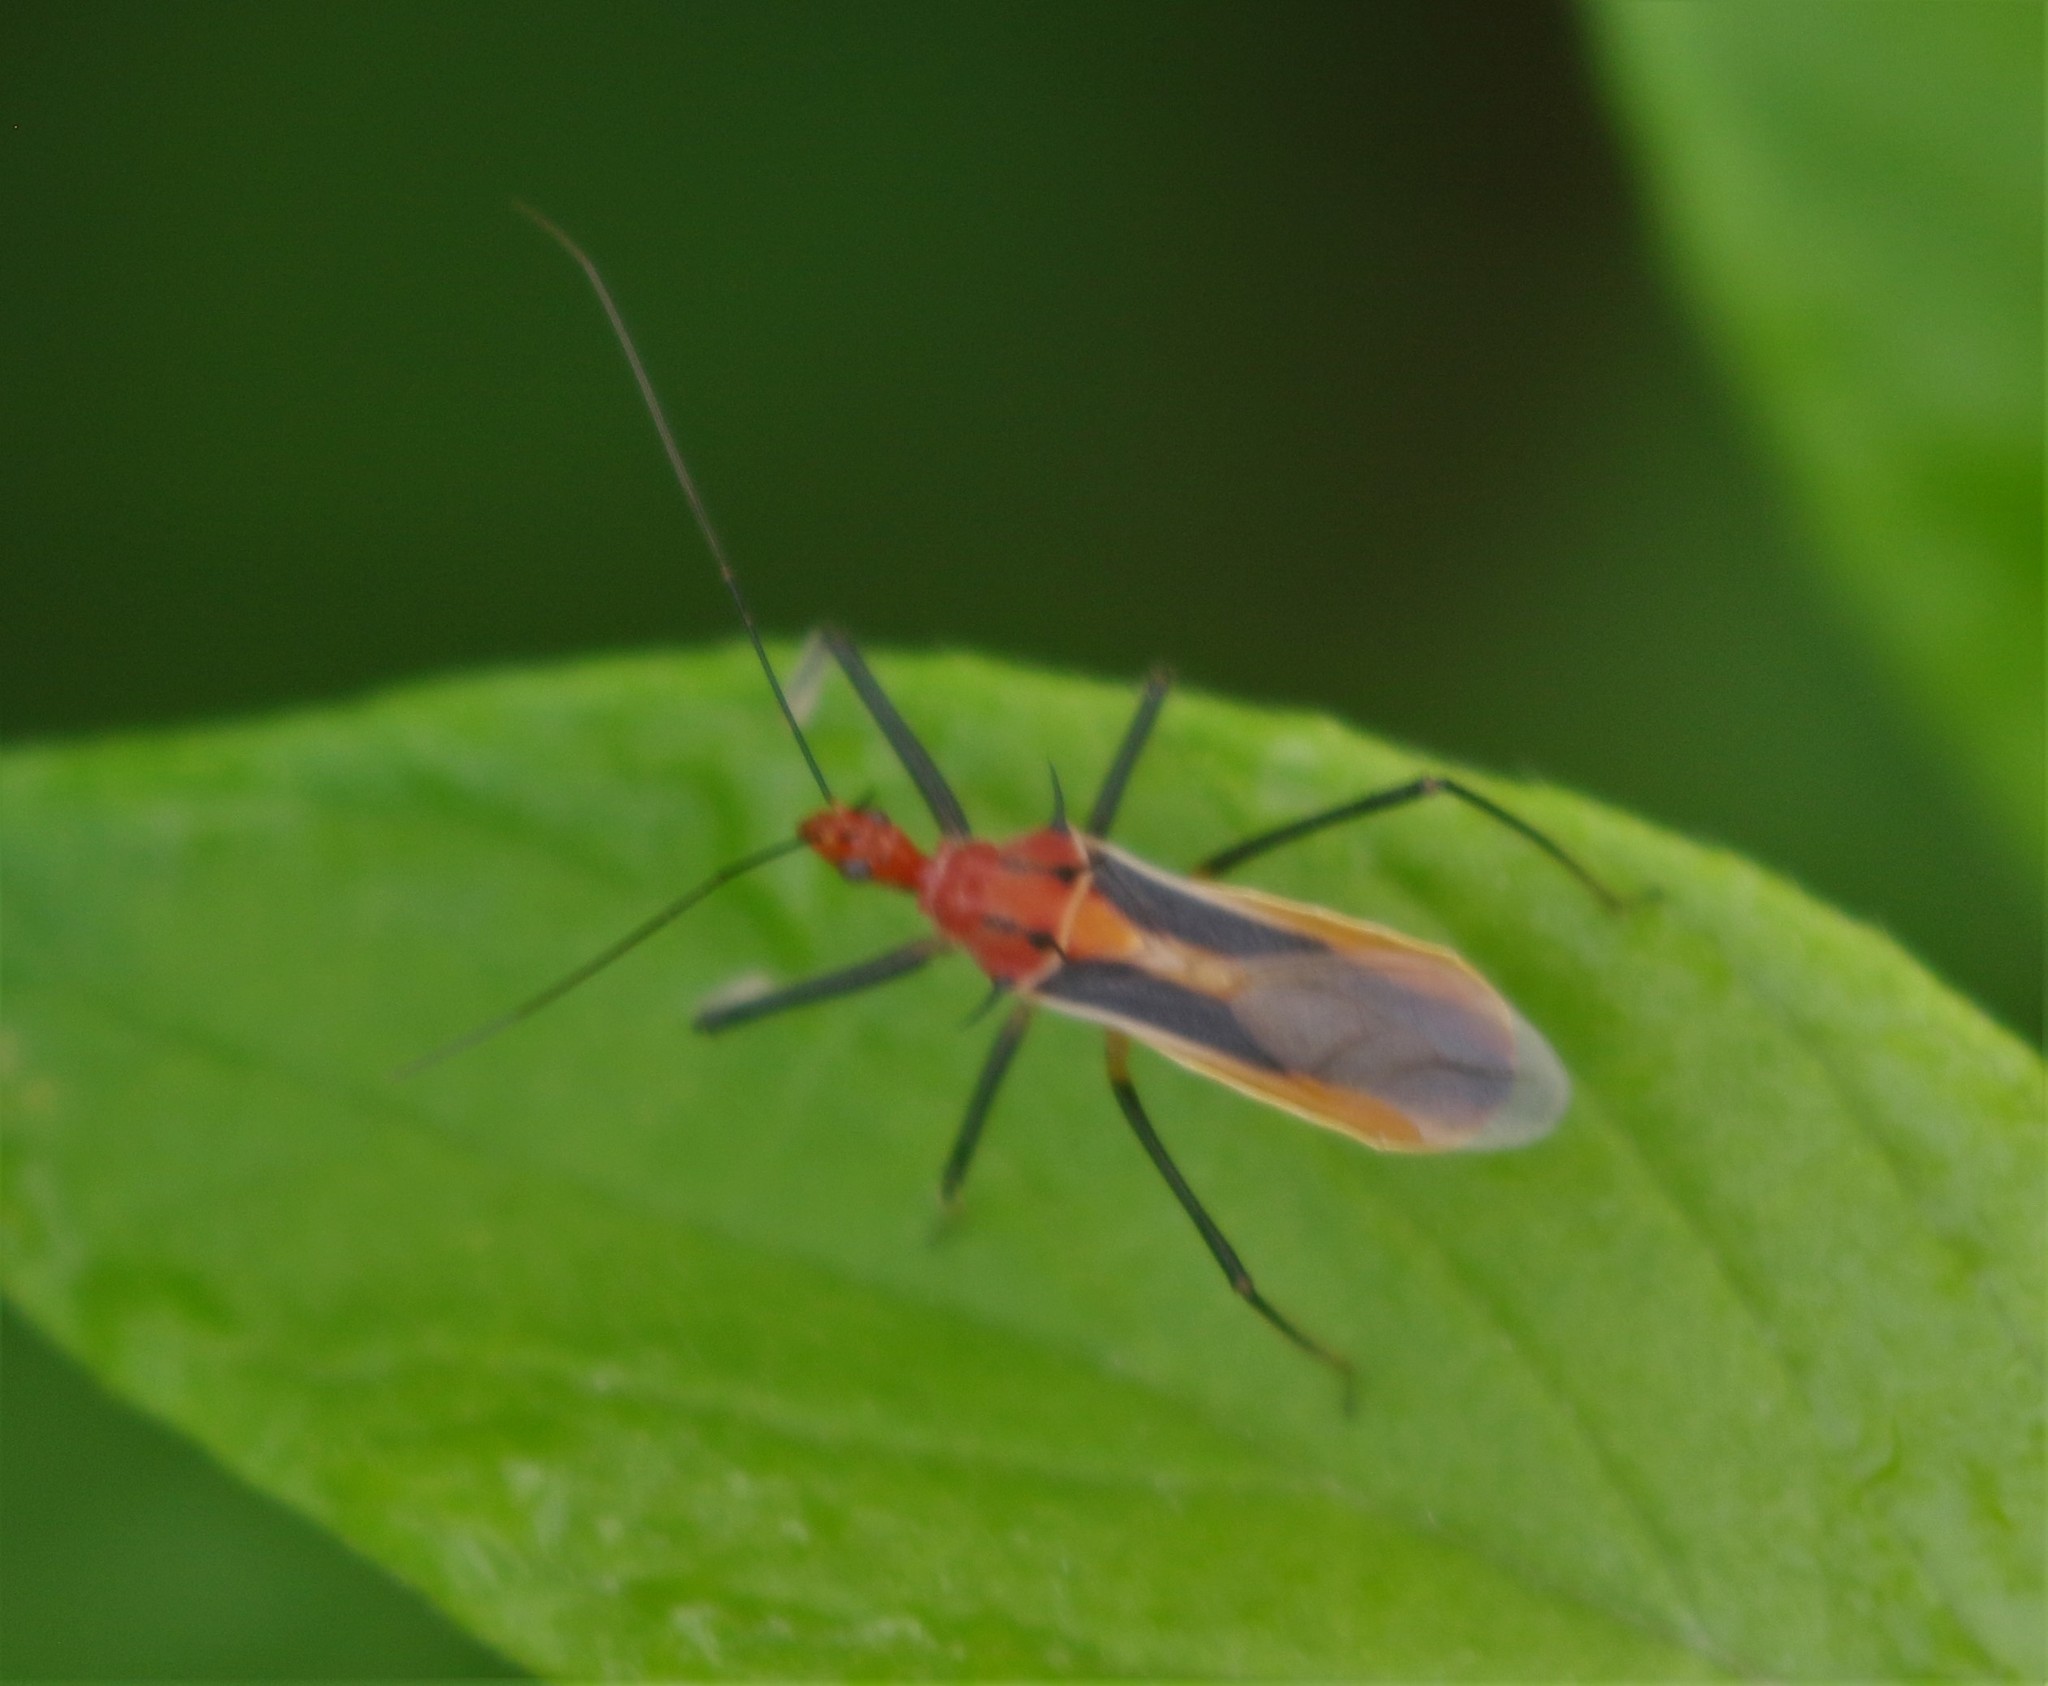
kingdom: Animalia
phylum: Arthropoda
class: Insecta
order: Hemiptera
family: Reduviidae
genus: Repipta
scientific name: Repipta taurus
